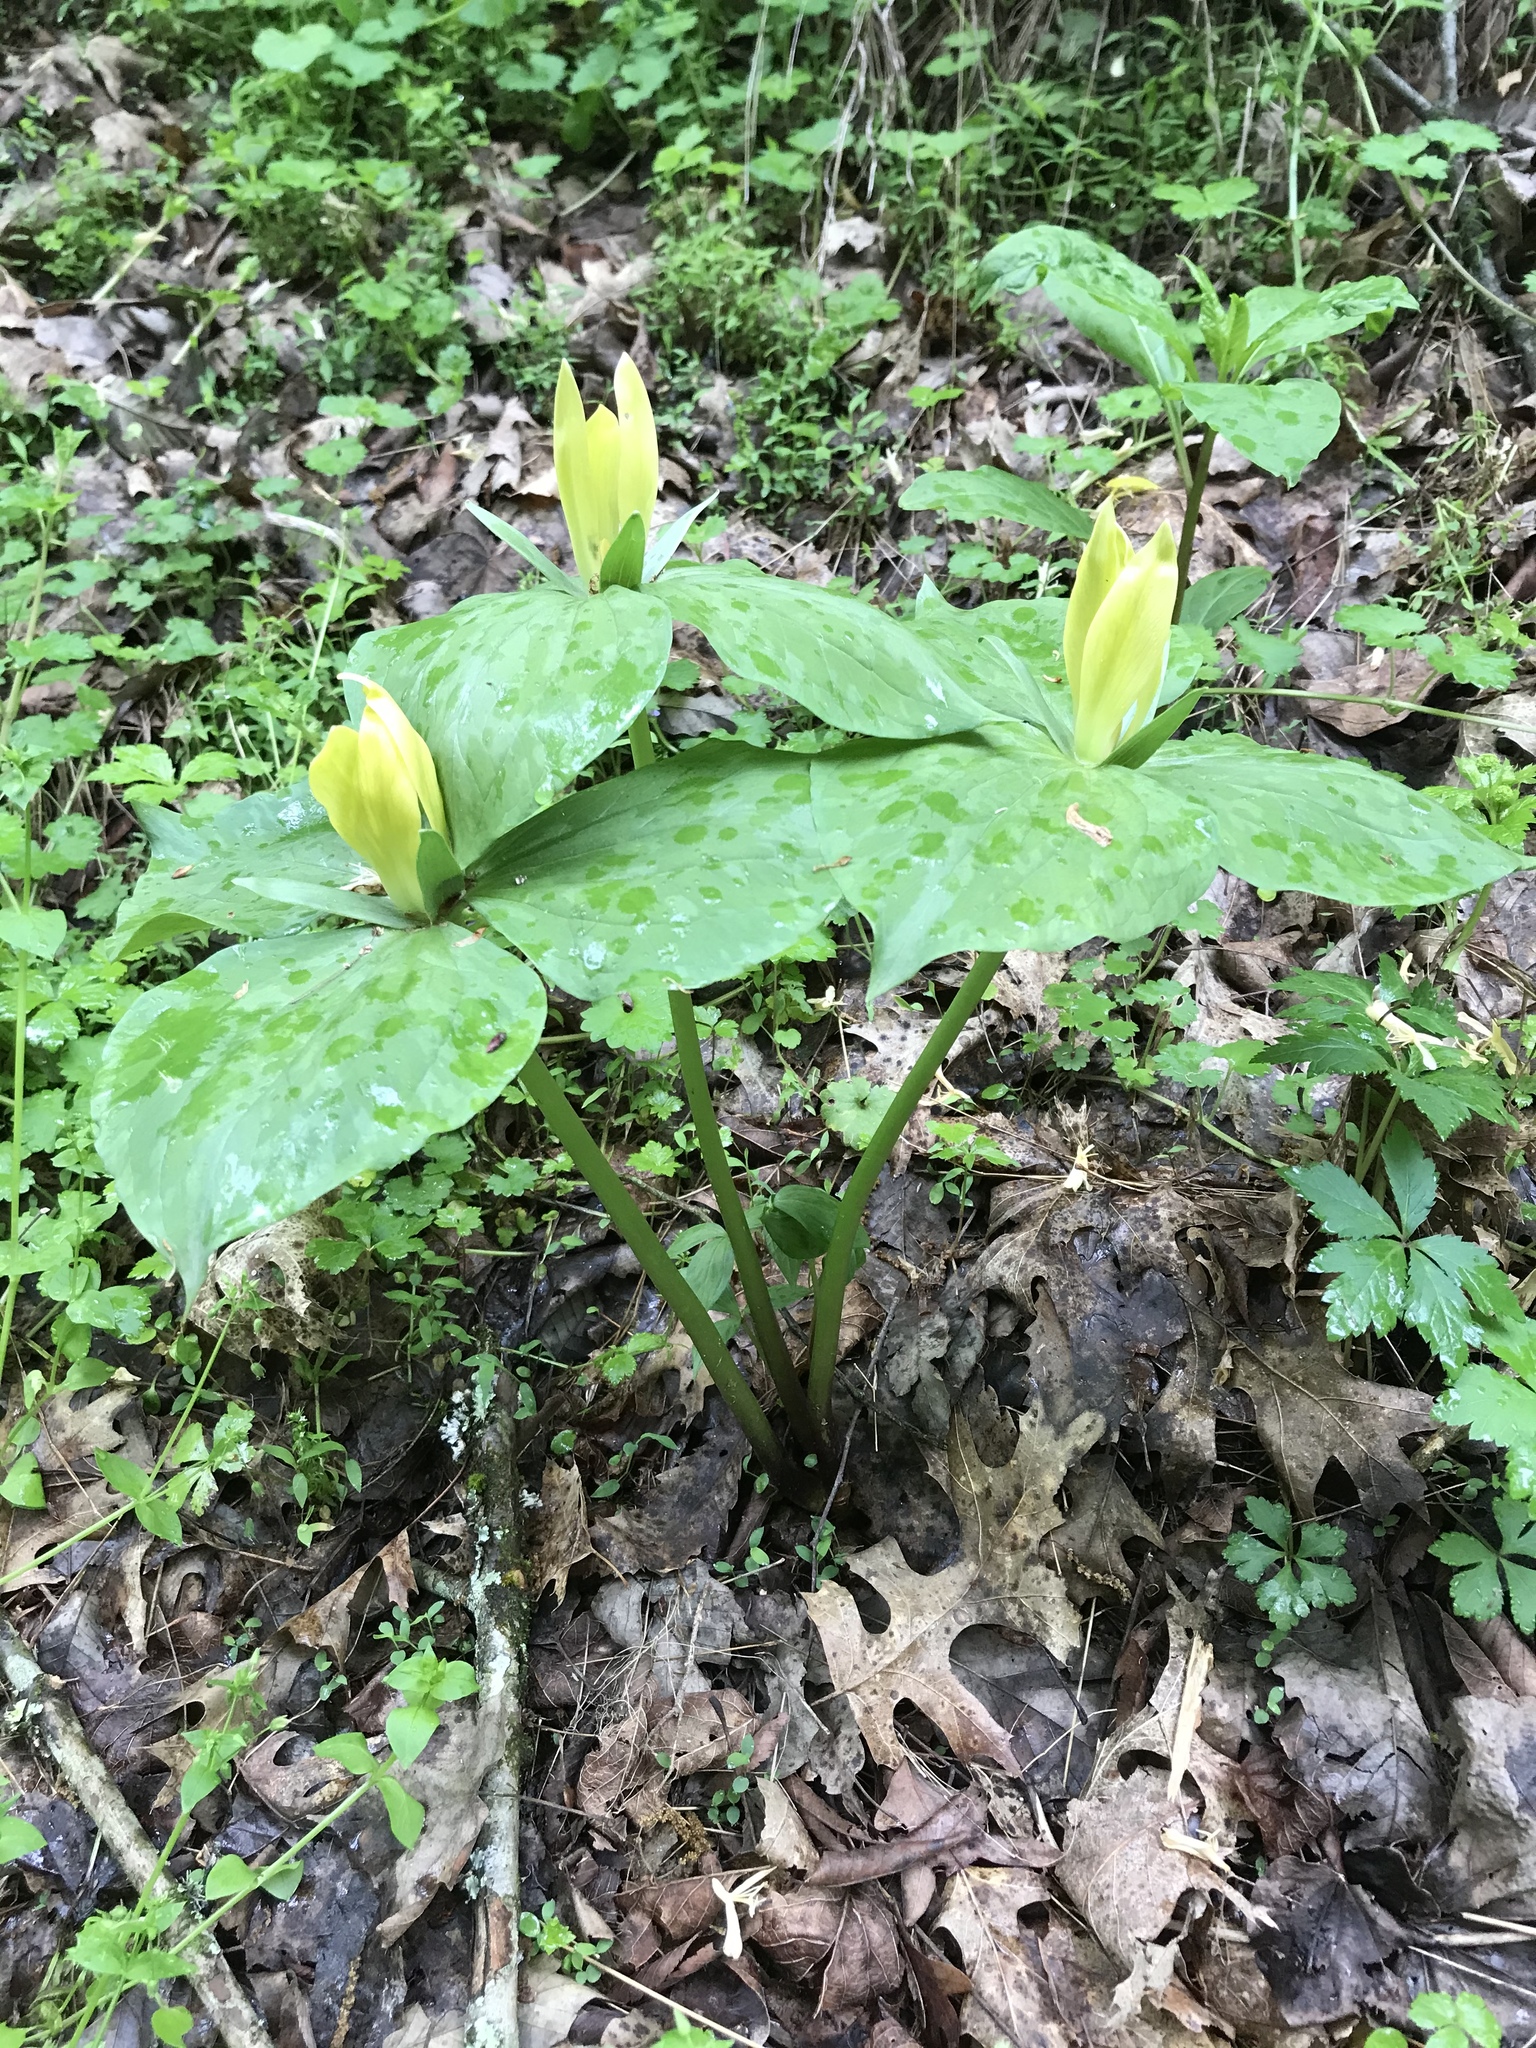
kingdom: Plantae
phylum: Tracheophyta
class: Liliopsida
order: Liliales
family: Melanthiaceae
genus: Trillium
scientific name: Trillium luteum
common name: Wax trillium
